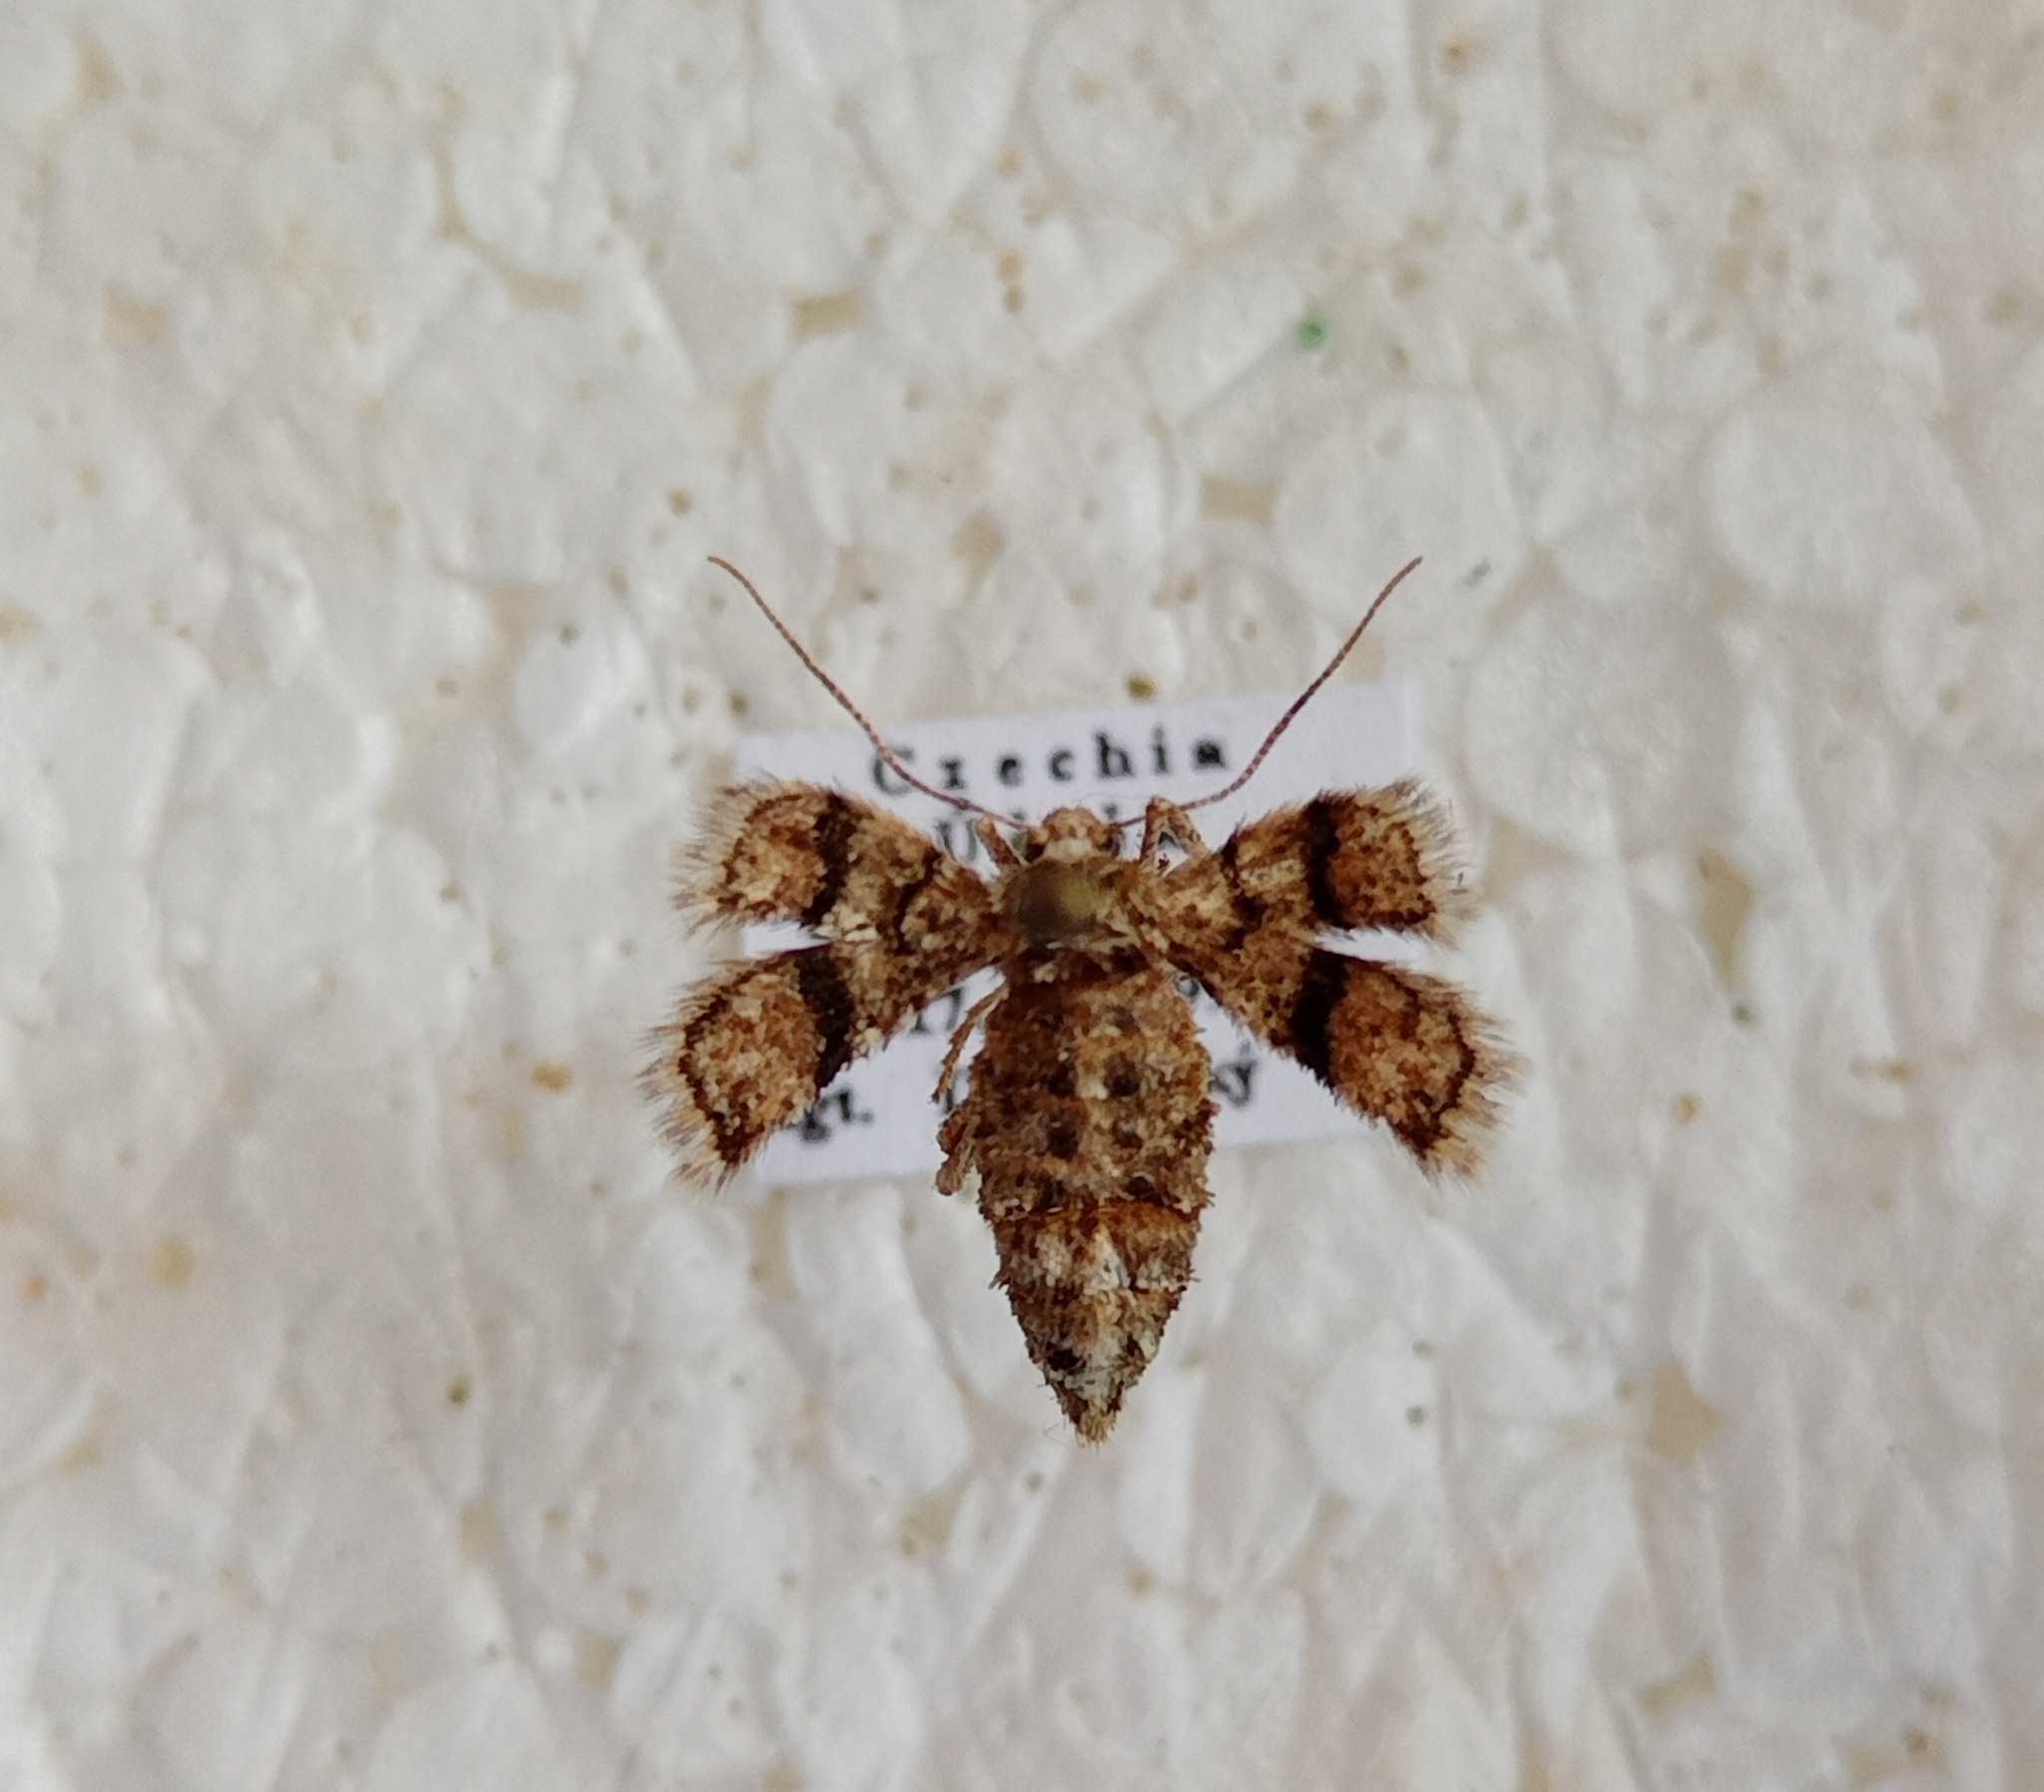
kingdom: Animalia
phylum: Arthropoda
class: Insecta
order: Lepidoptera
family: Geometridae
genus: Agriopis
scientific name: Agriopis marginaria
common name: Dotted border
